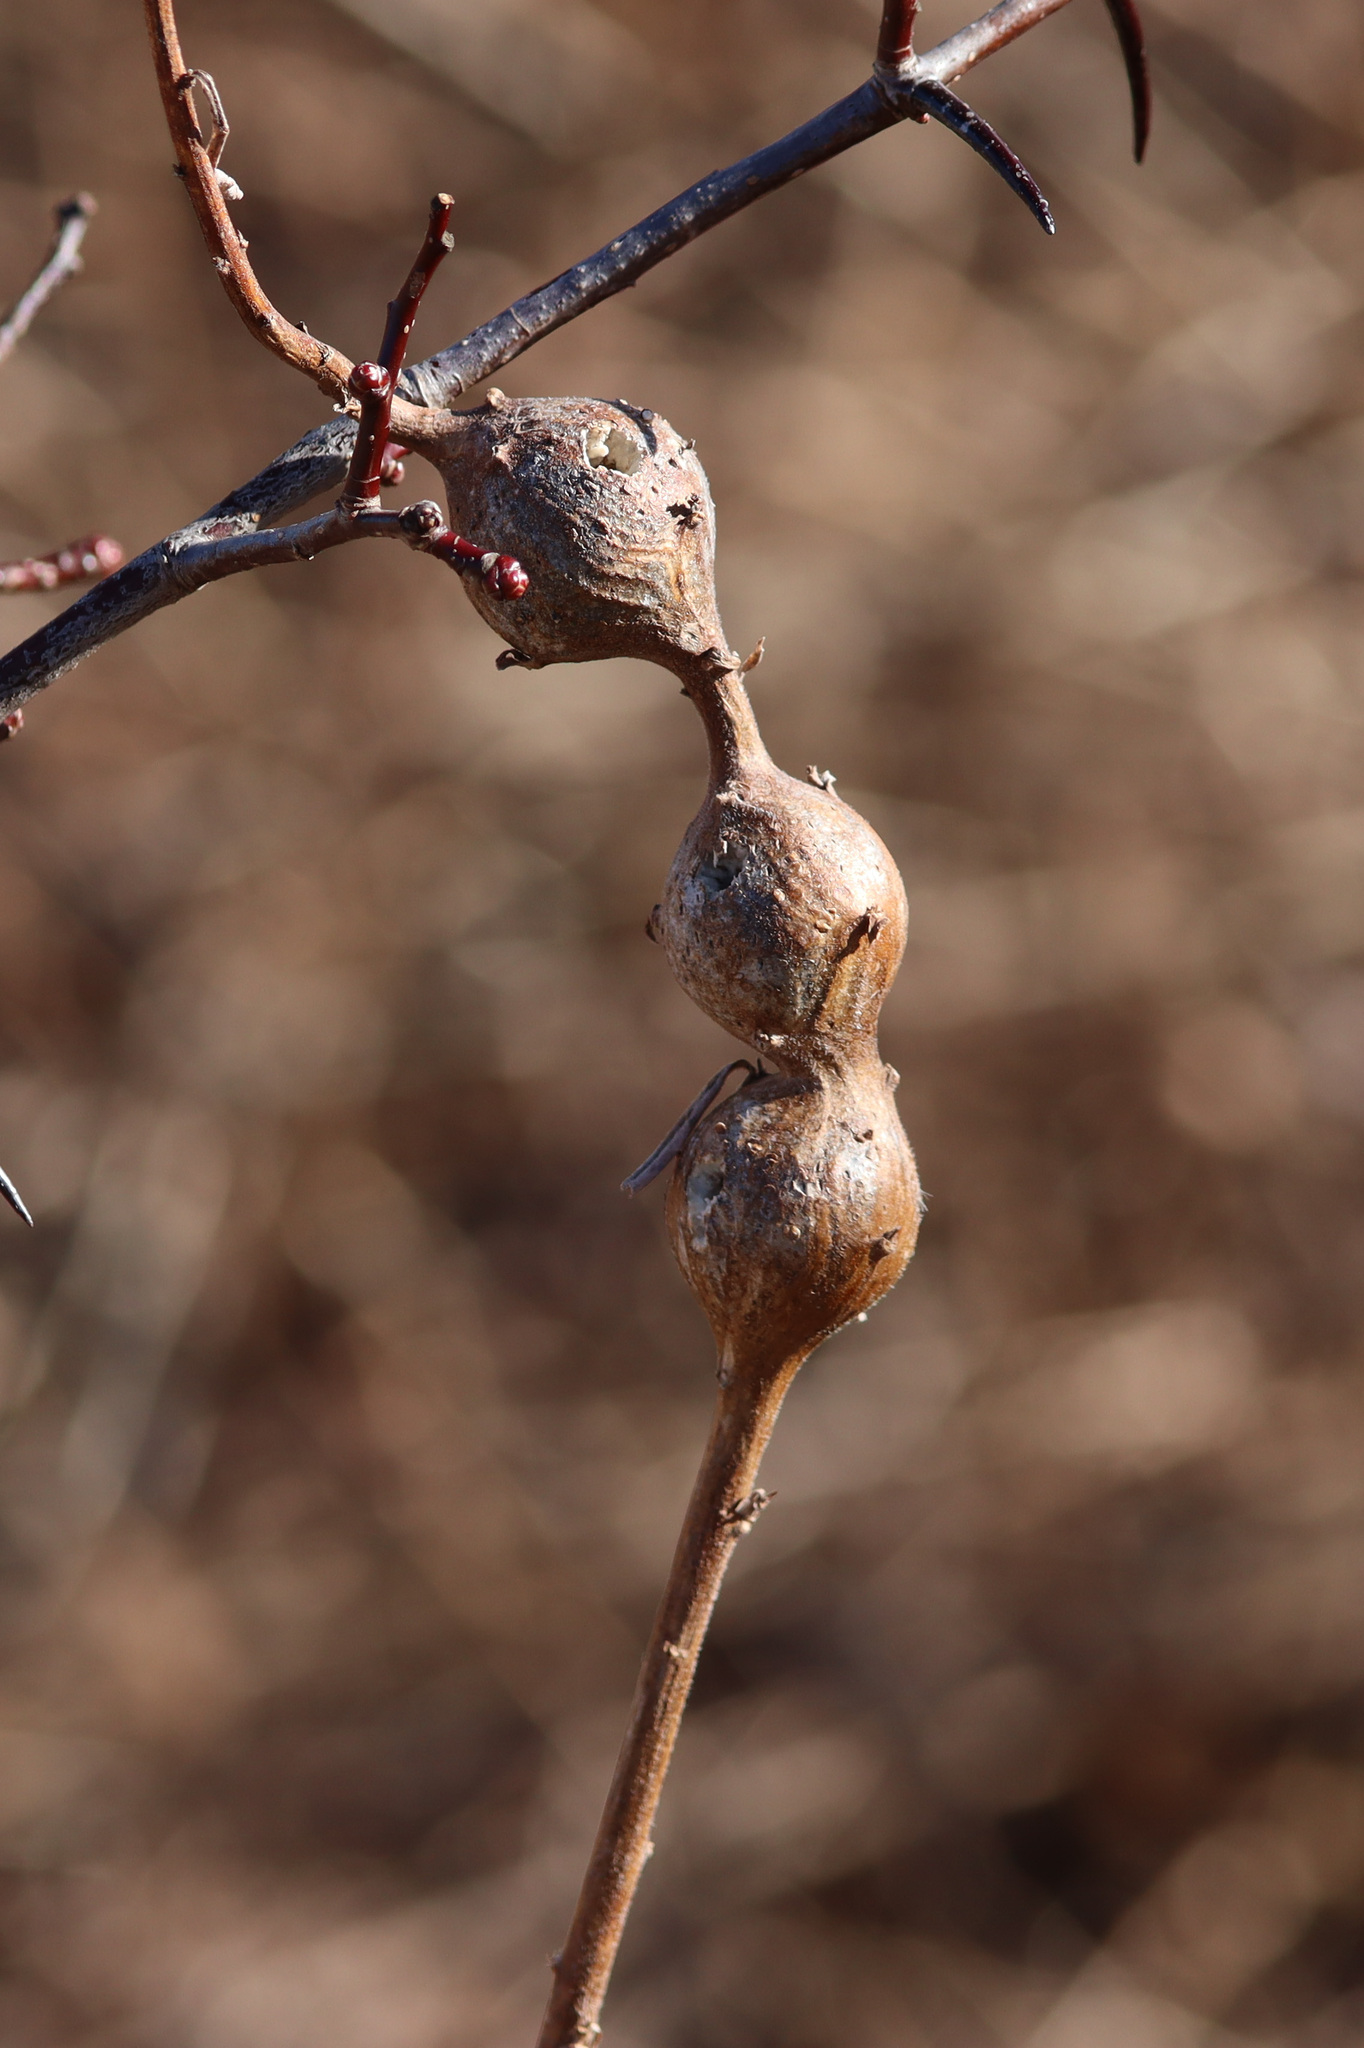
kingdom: Animalia
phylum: Arthropoda
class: Insecta
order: Diptera
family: Tephritidae
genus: Eurosta
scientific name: Eurosta solidaginis
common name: Goldenrod gall fly
